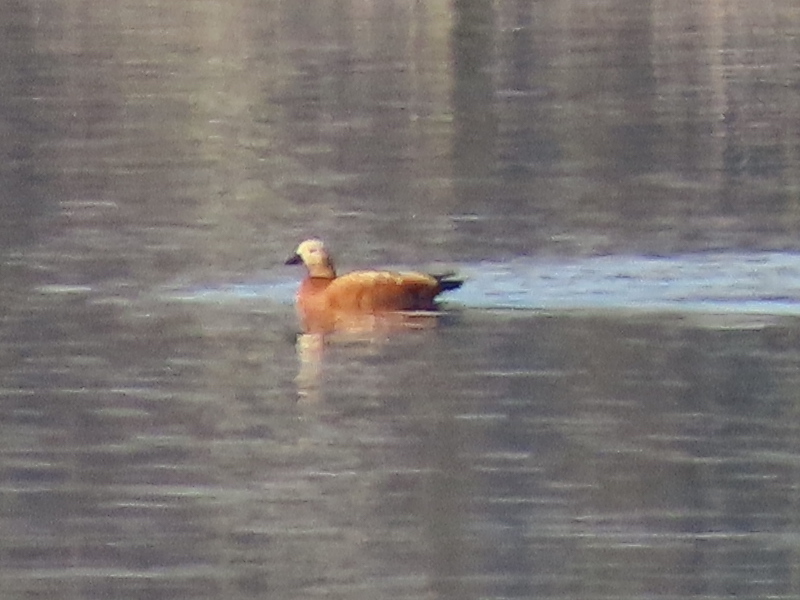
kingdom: Animalia
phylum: Chordata
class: Aves
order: Anseriformes
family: Anatidae
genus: Tadorna
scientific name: Tadorna ferruginea
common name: Ruddy shelduck
